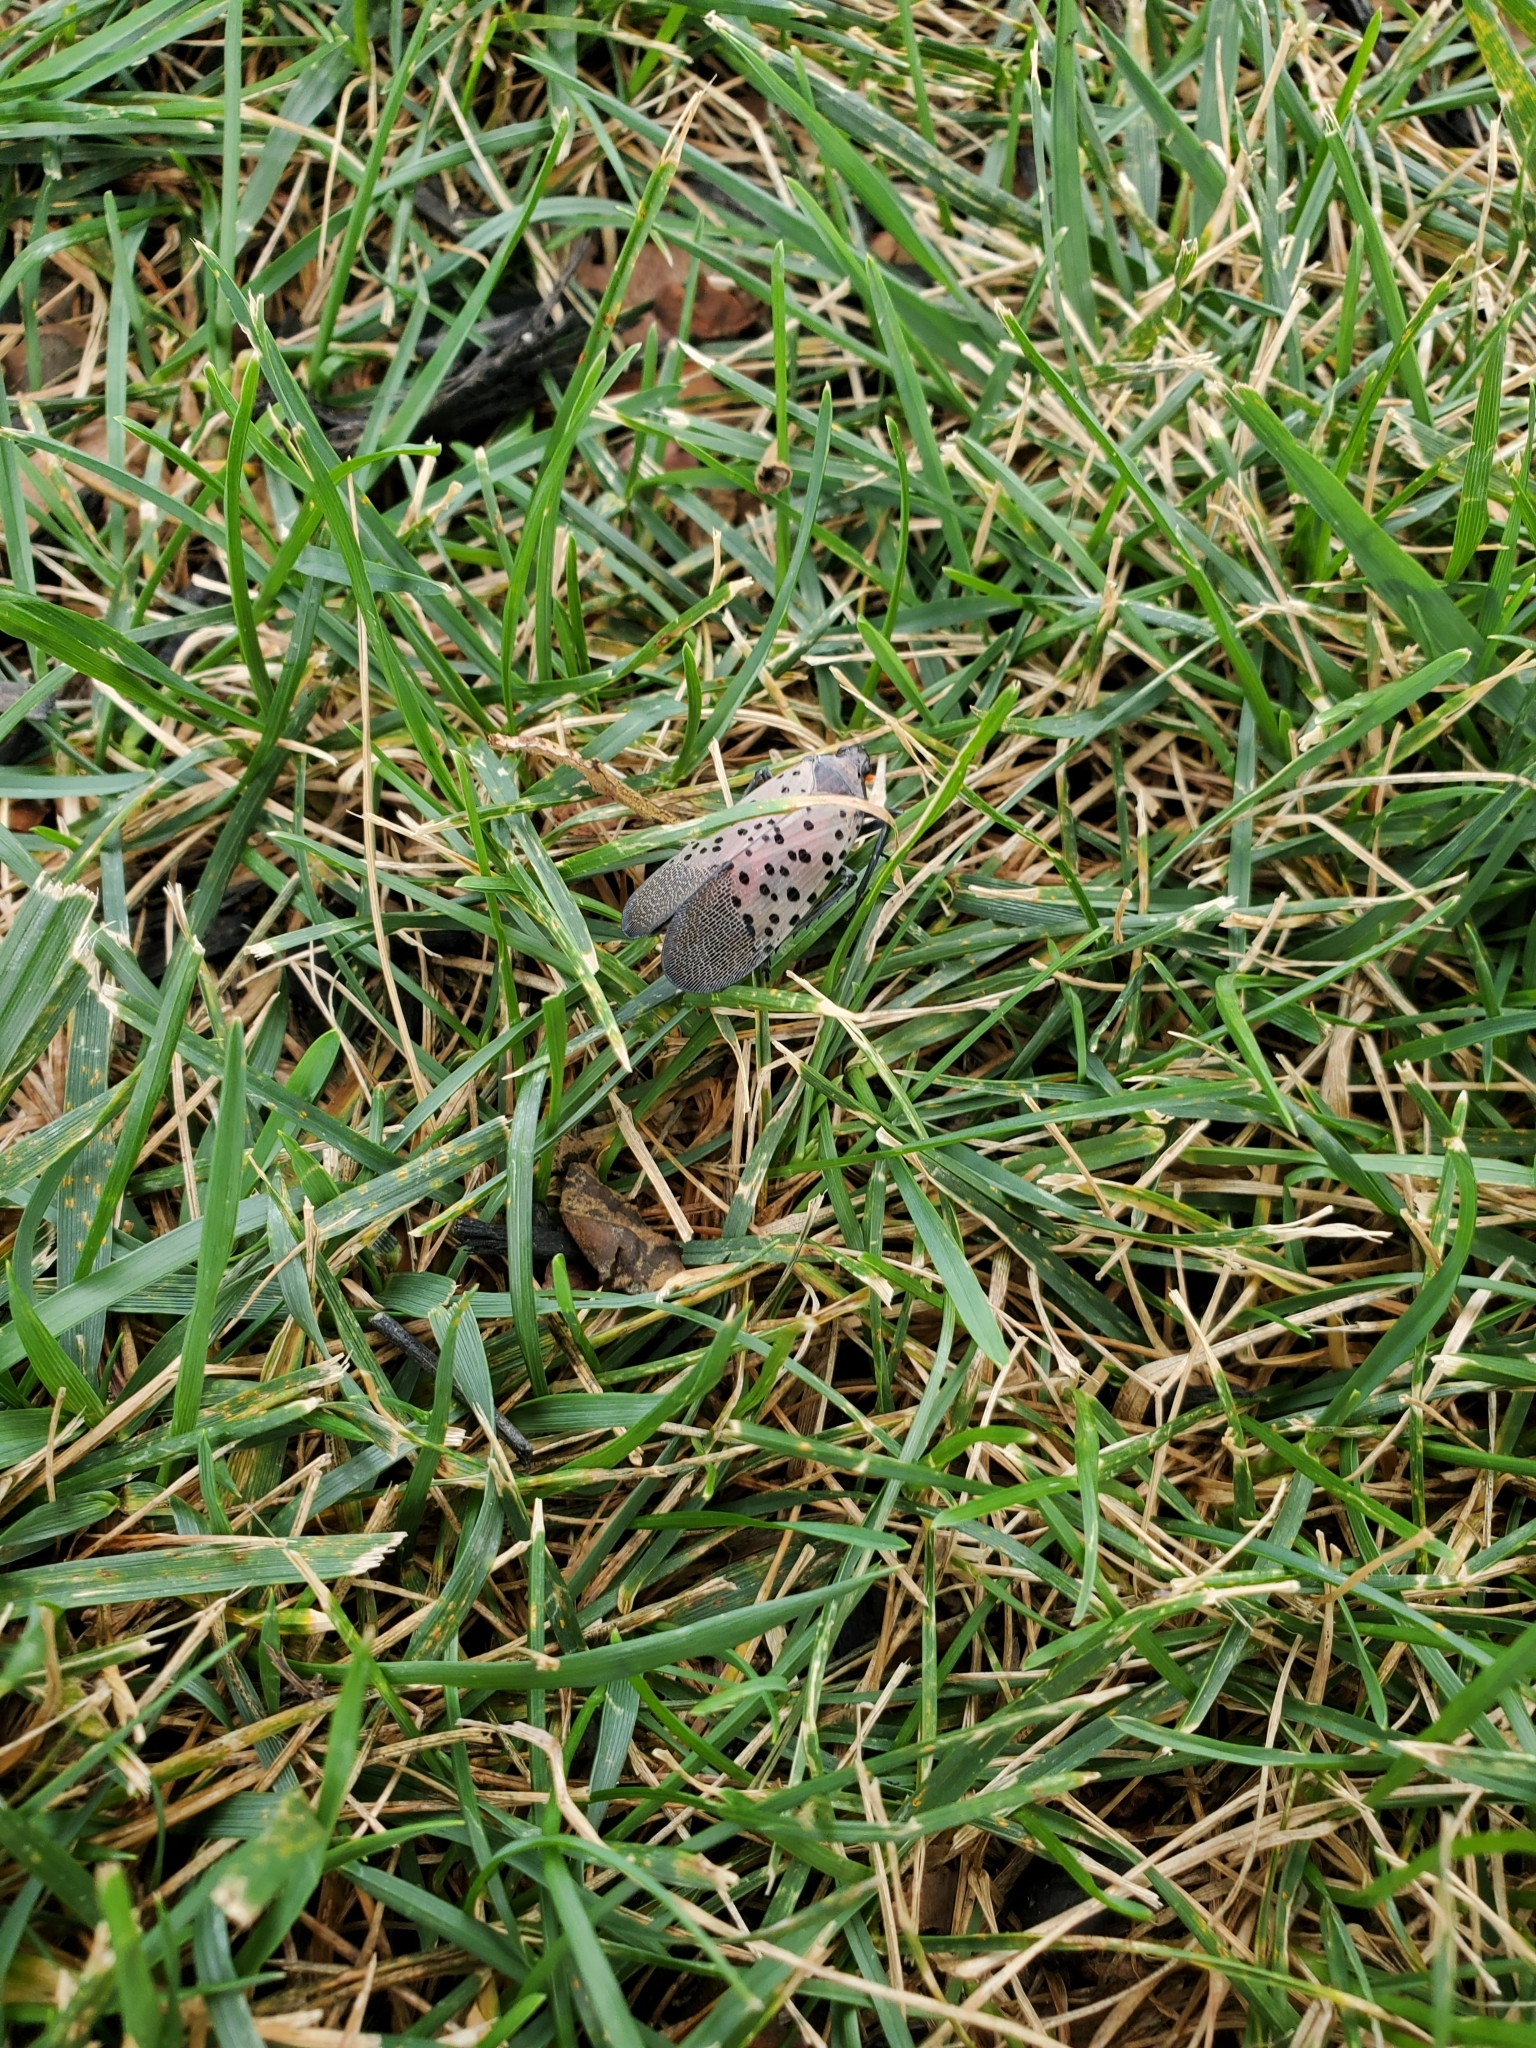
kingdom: Animalia
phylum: Arthropoda
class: Insecta
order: Hemiptera
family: Fulgoridae
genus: Lycorma
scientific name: Lycorma delicatula
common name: Spotted lanternfly
